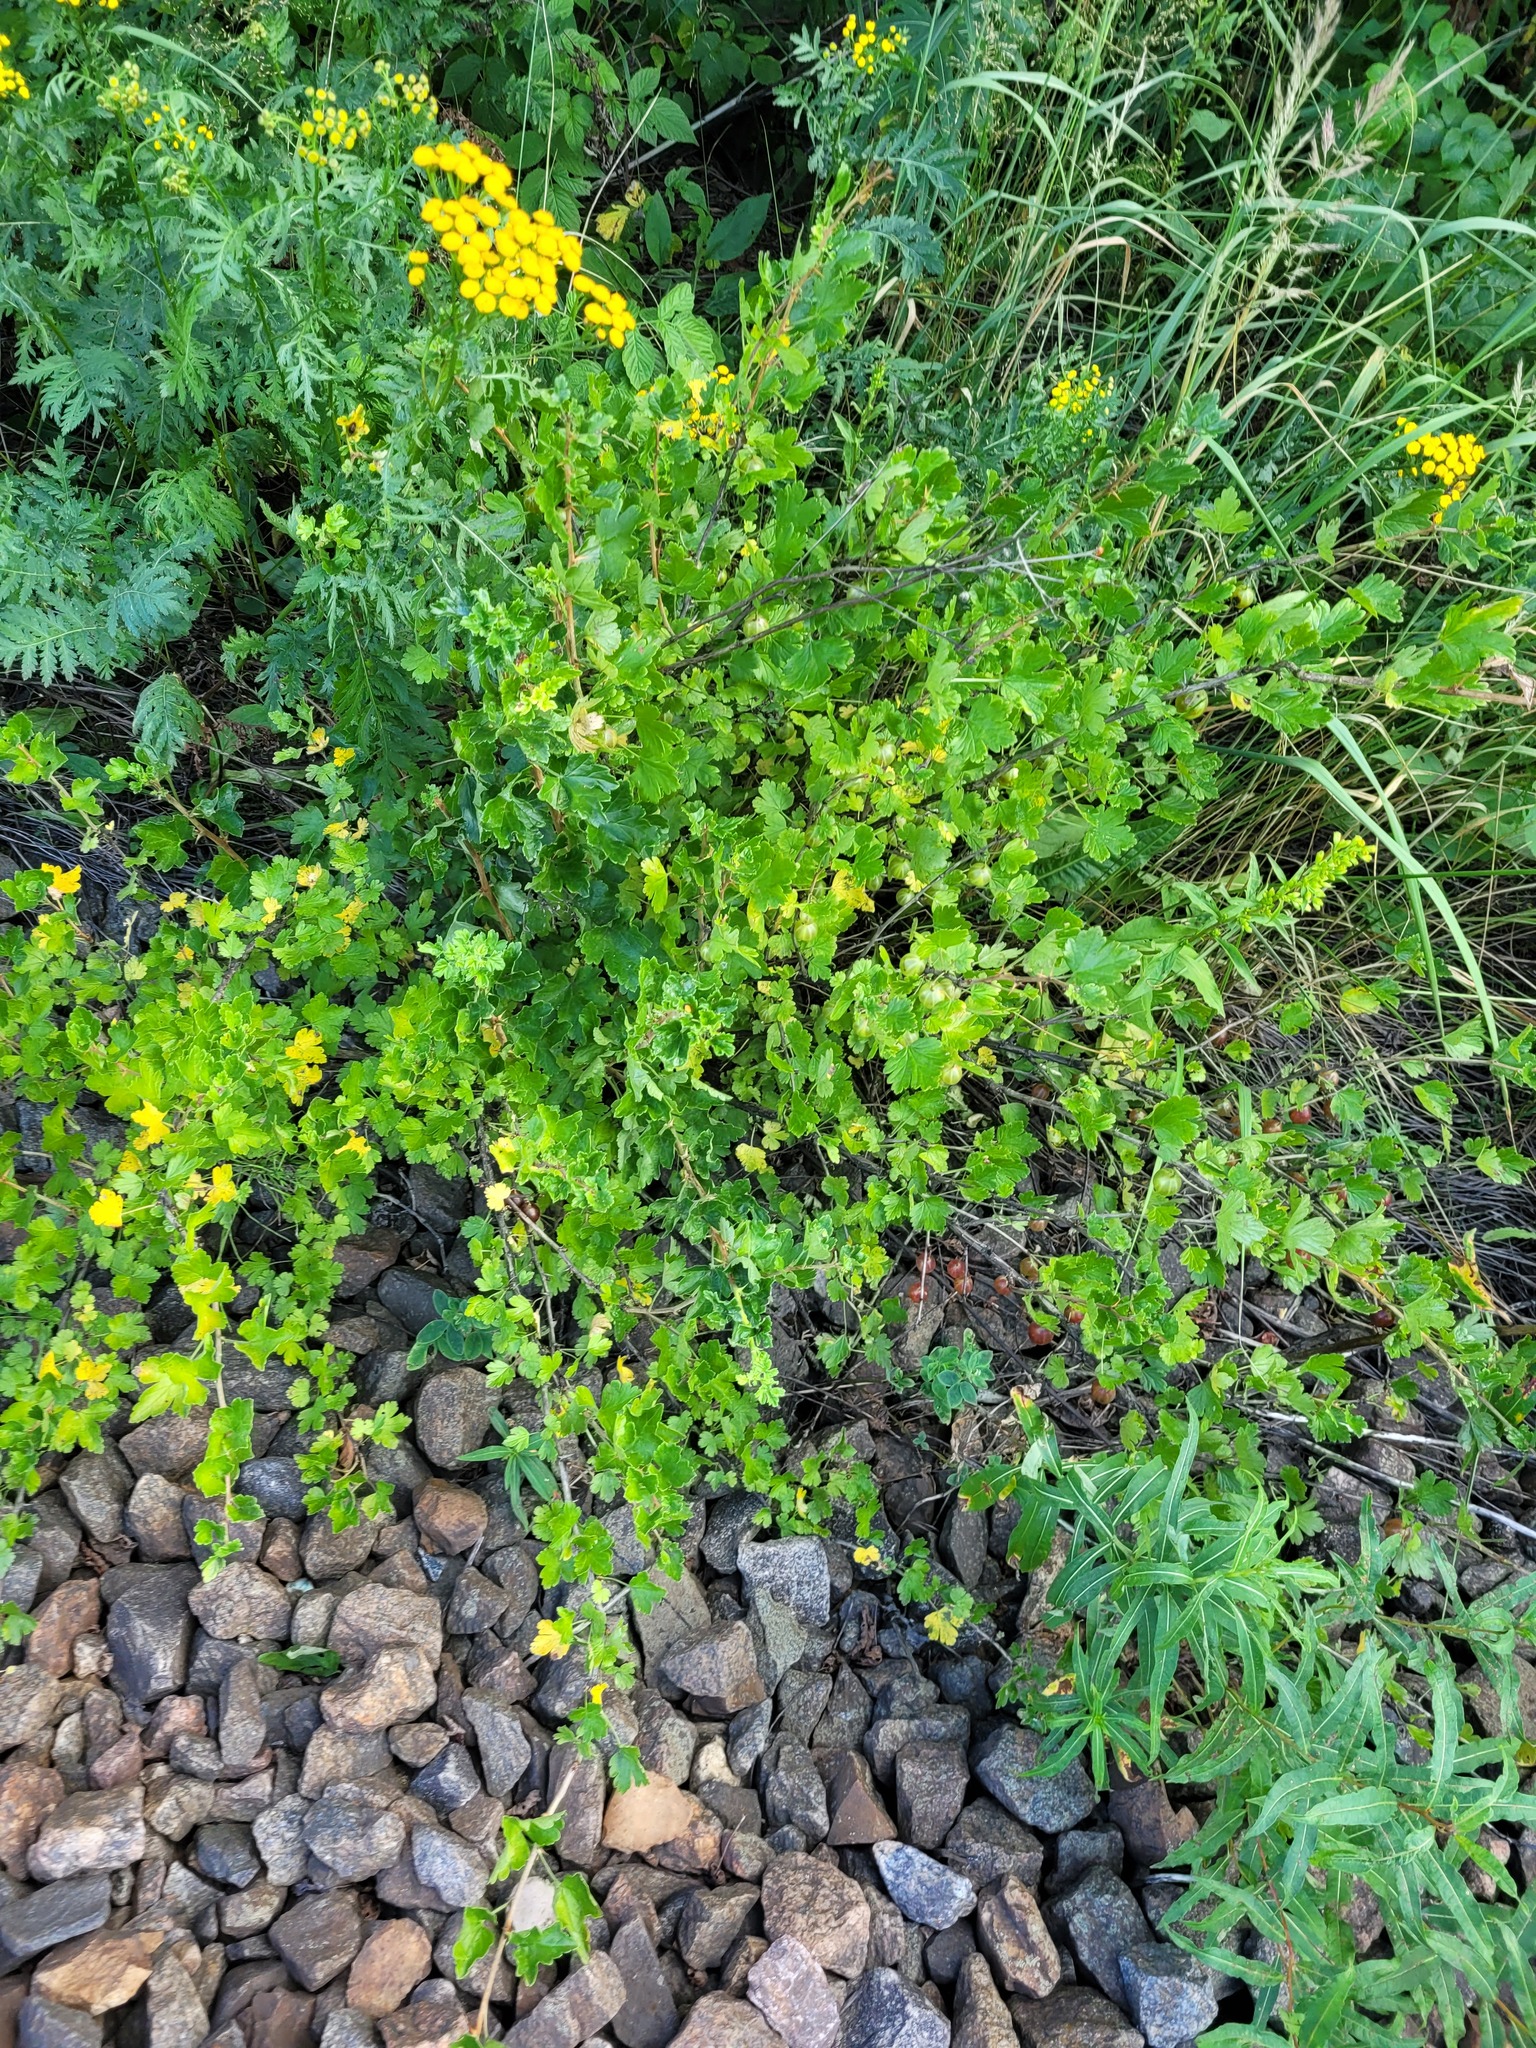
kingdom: Plantae
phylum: Tracheophyta
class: Magnoliopsida
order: Saxifragales
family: Grossulariaceae
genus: Ribes
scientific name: Ribes uva-crispa
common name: Gooseberry
